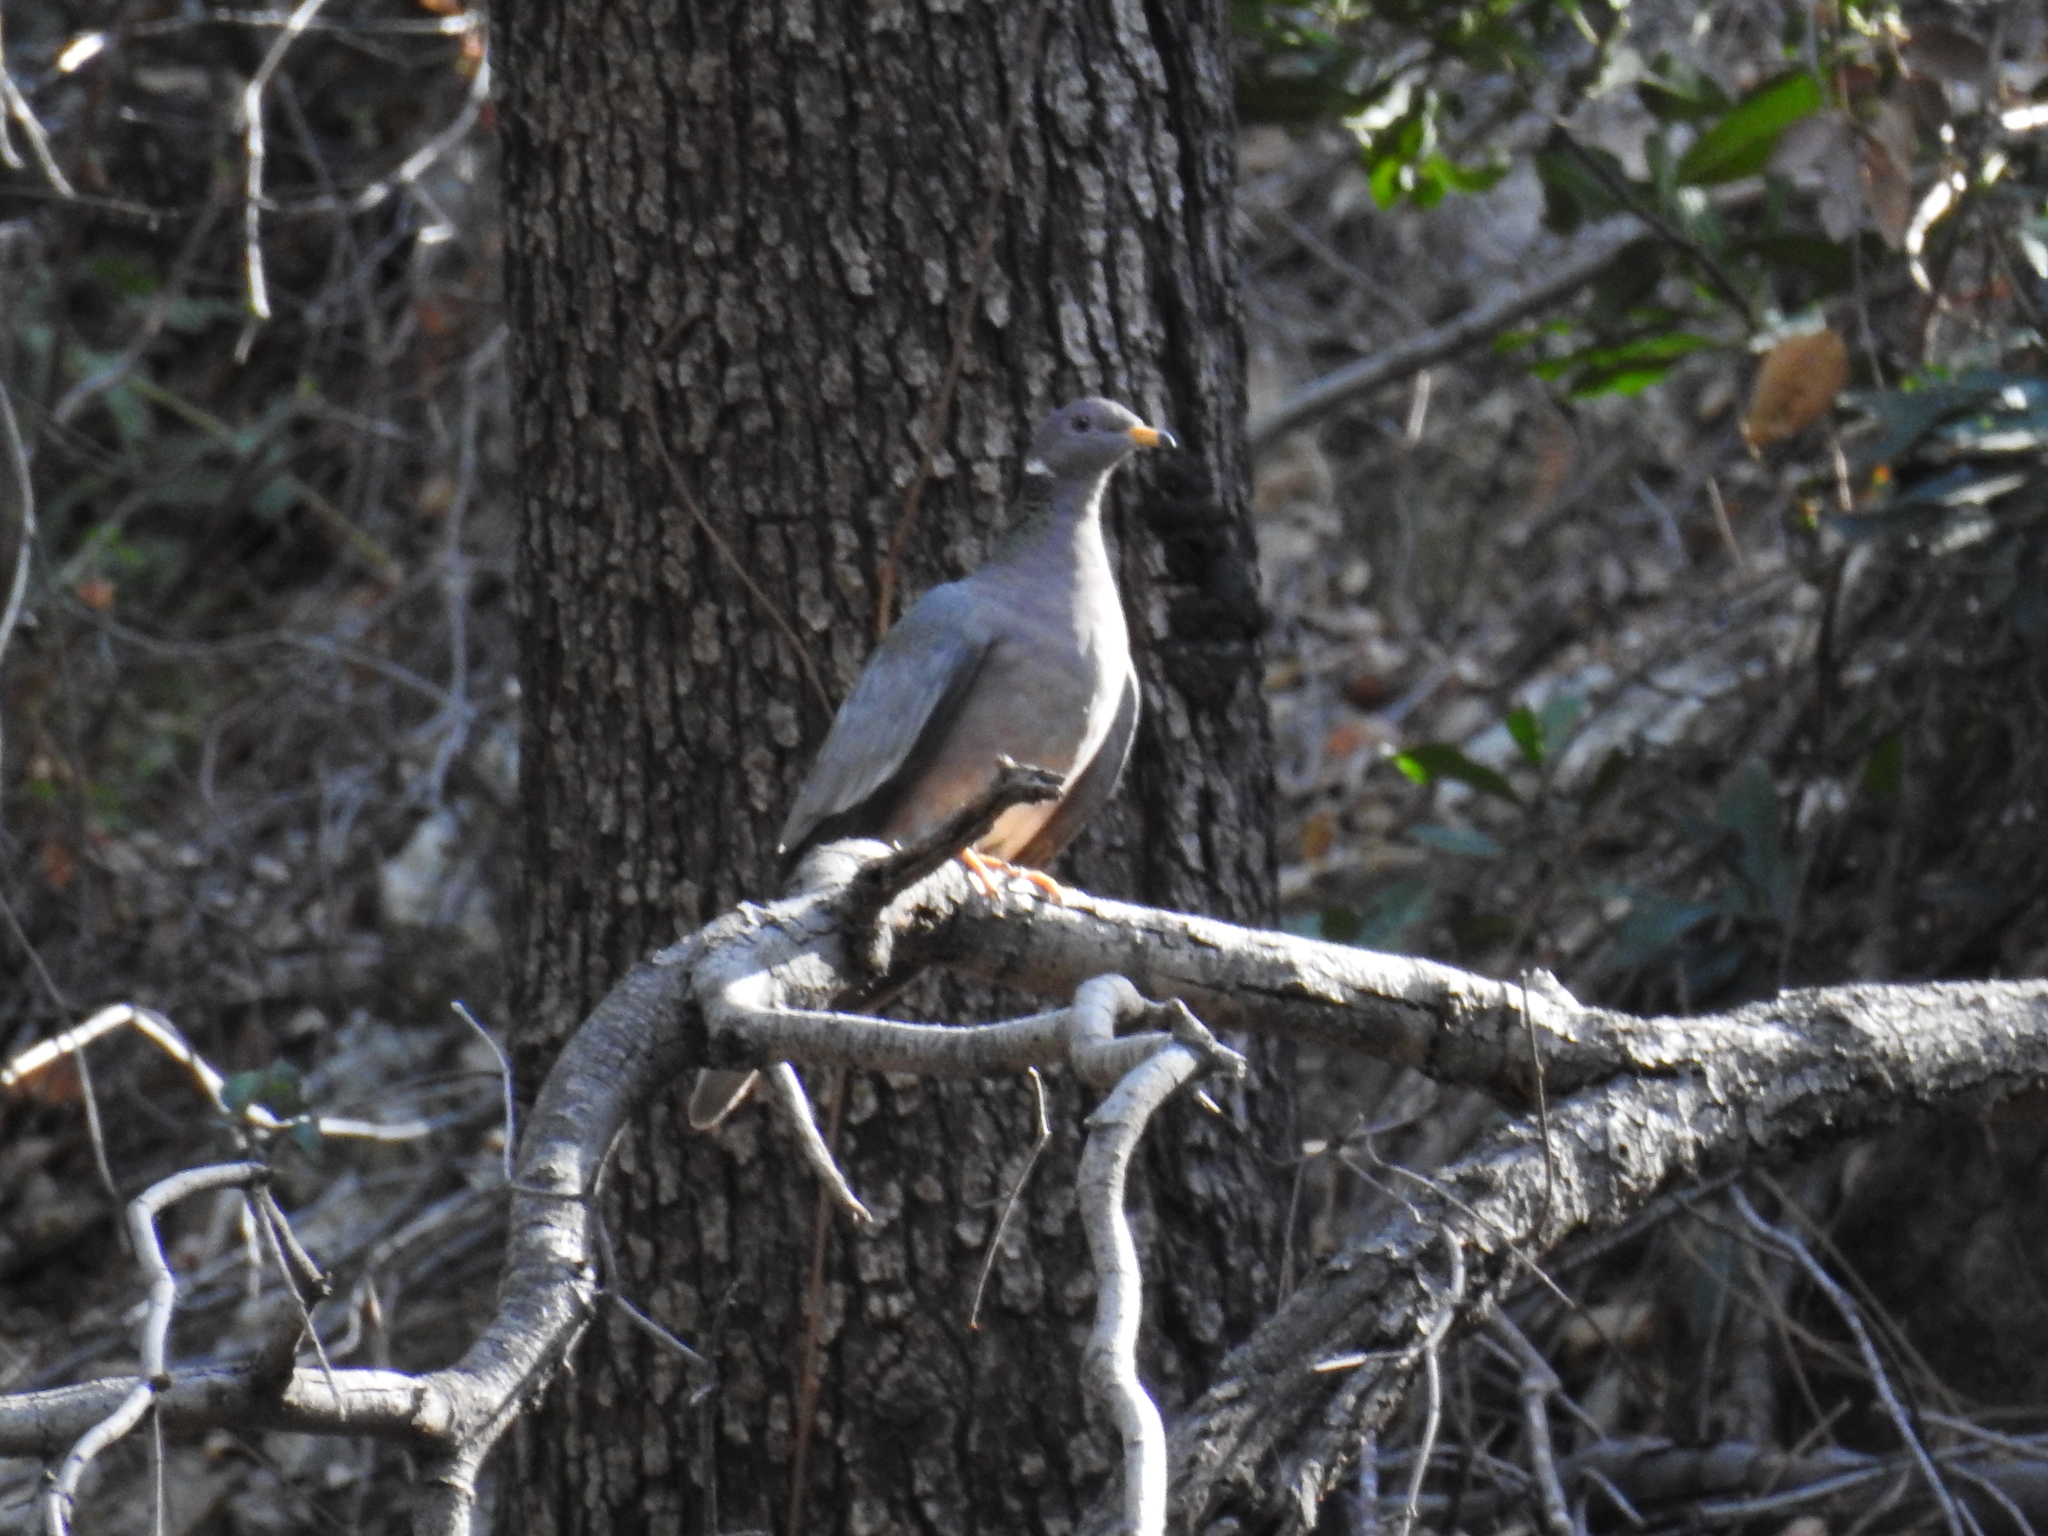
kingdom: Animalia
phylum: Chordata
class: Aves
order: Columbiformes
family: Columbidae
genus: Patagioenas
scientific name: Patagioenas fasciata
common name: Band-tailed pigeon
